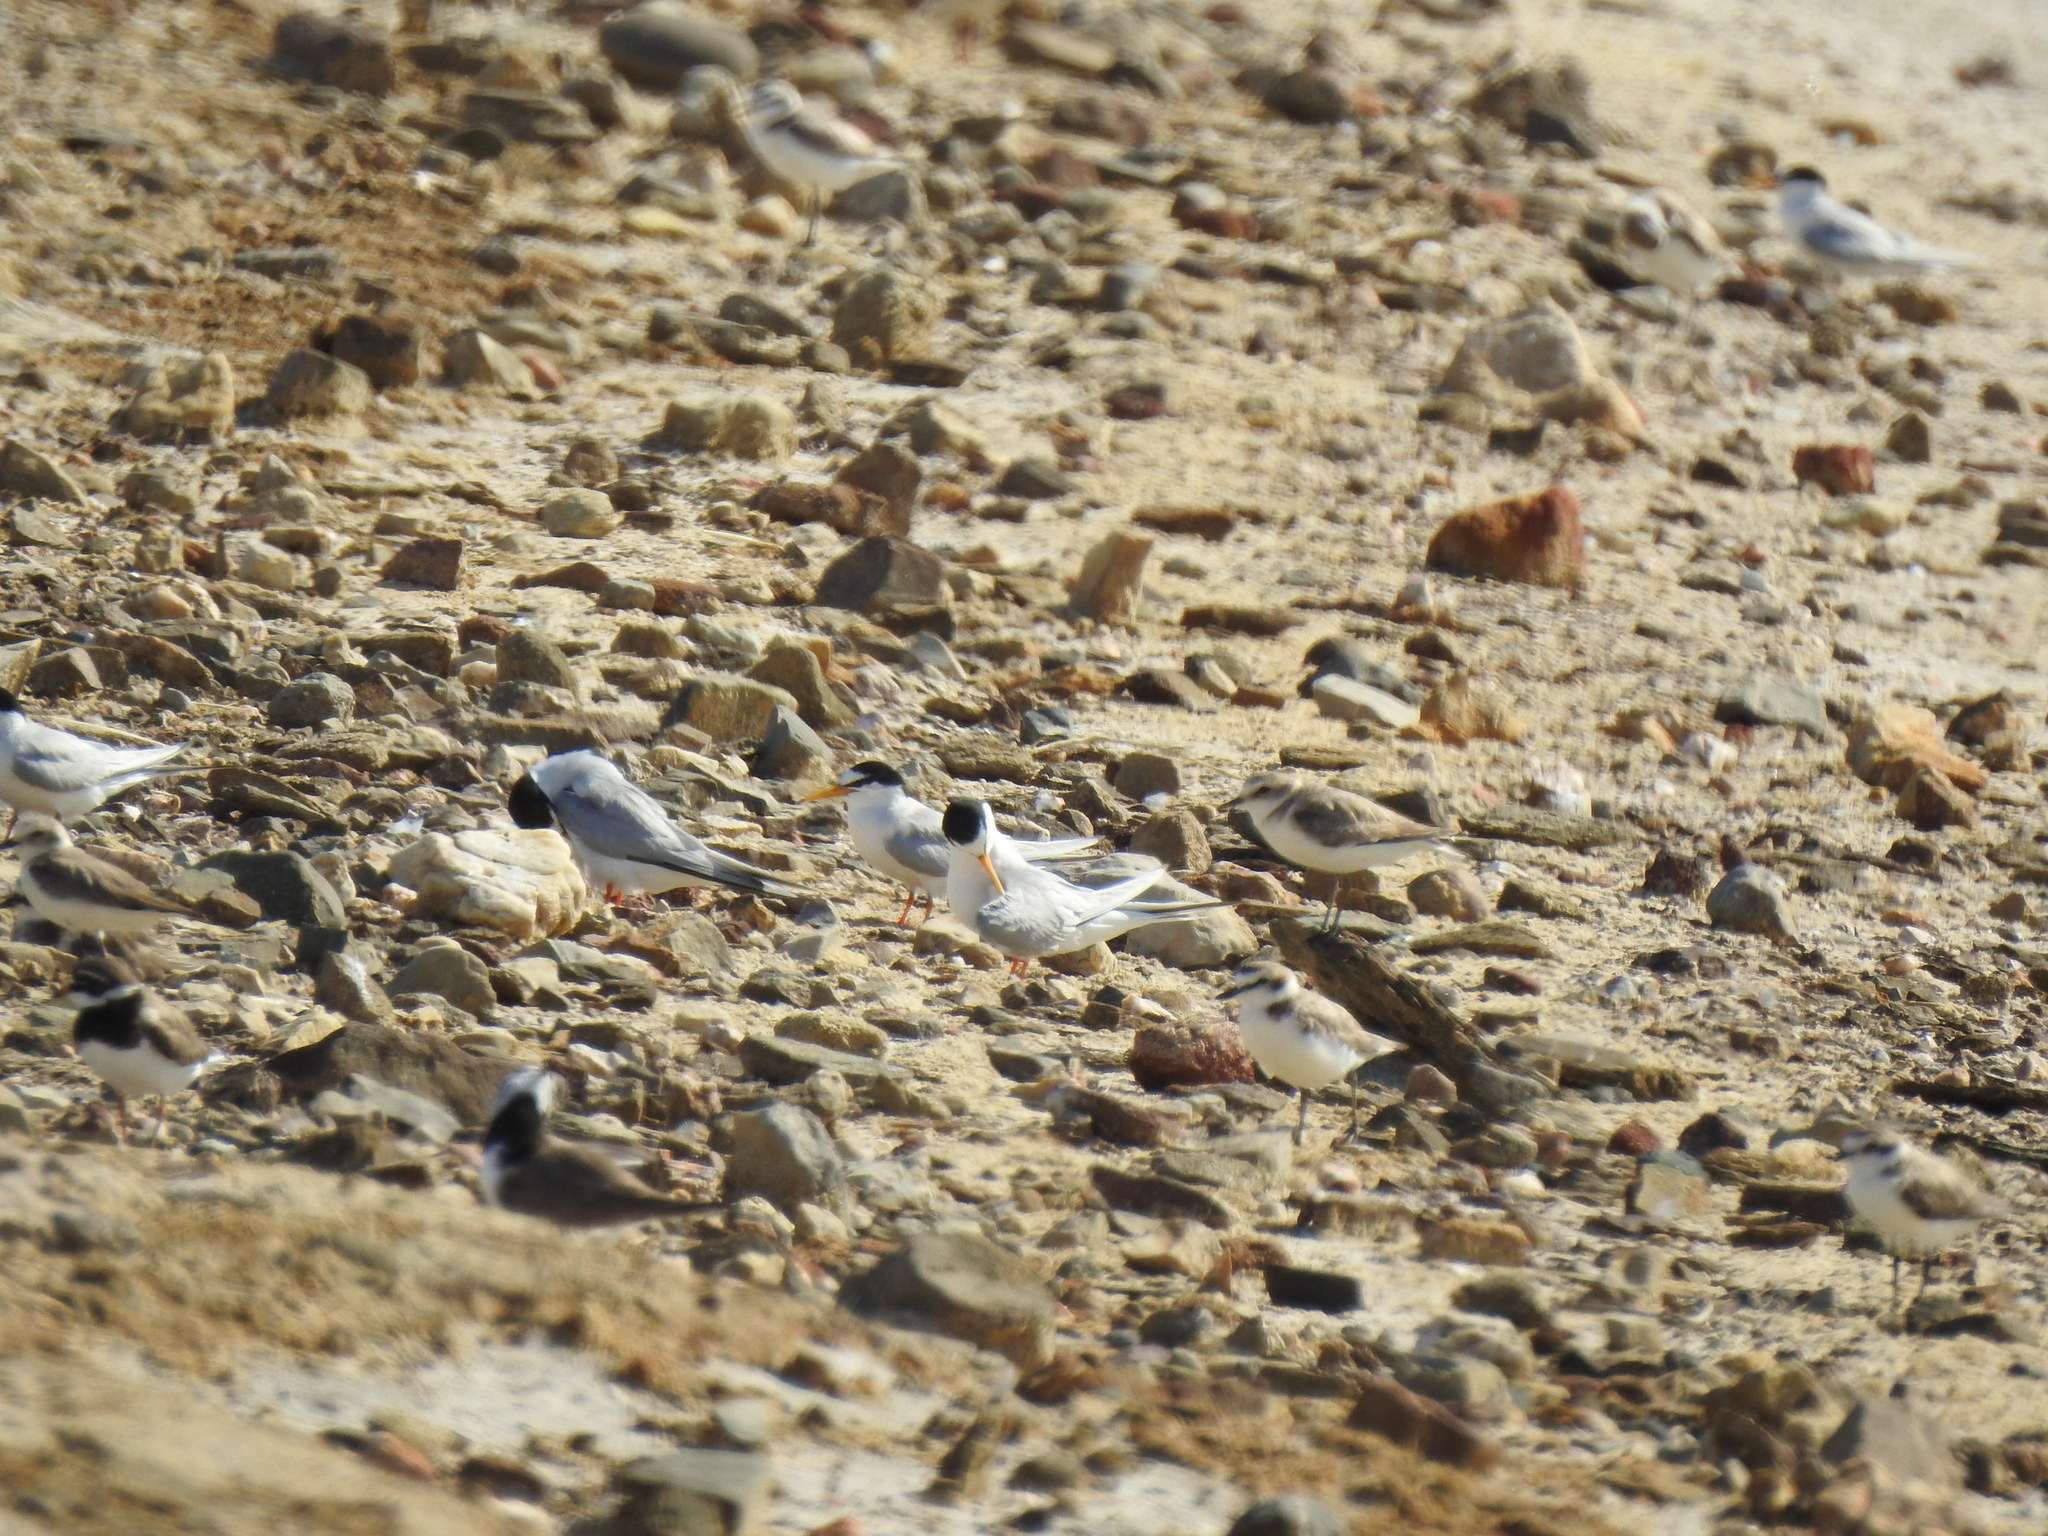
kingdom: Animalia
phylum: Chordata
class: Aves
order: Charadriiformes
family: Charadriidae
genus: Charadrius
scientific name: Charadrius alexandrinus
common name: Kentish plover
